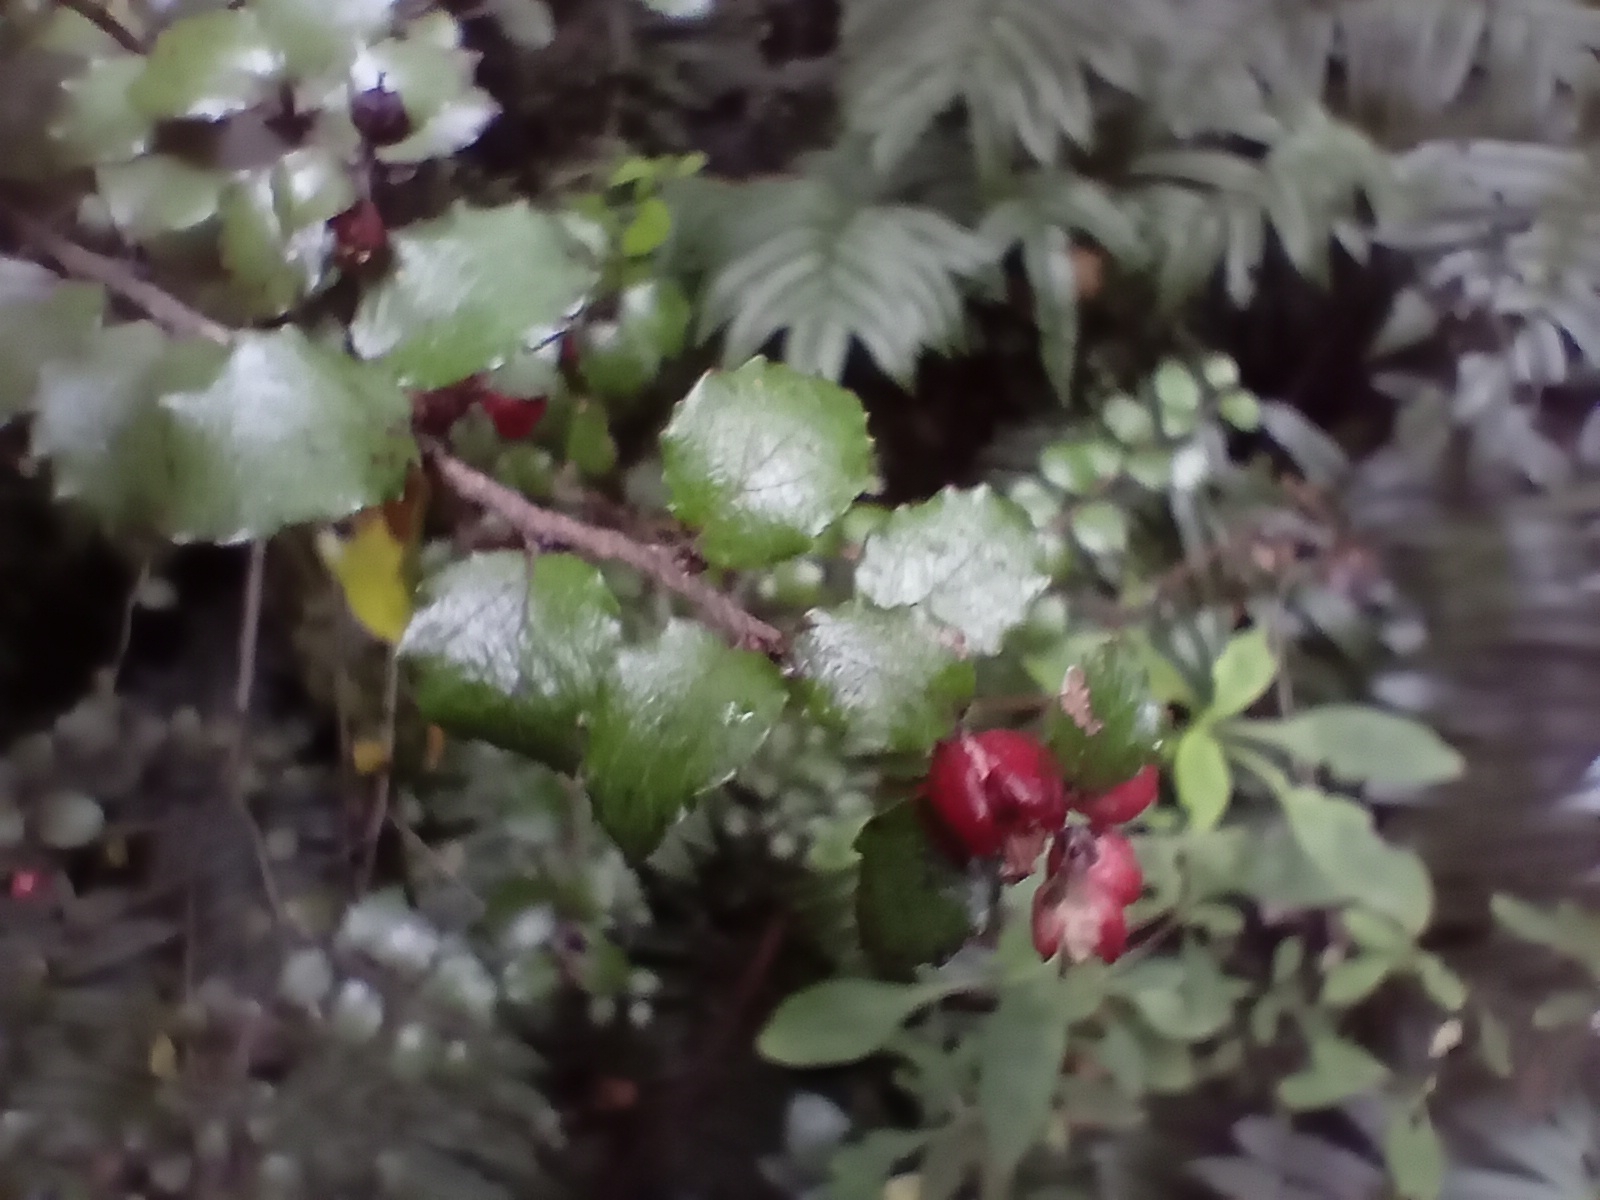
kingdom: Plantae
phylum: Tracheophyta
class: Magnoliopsida
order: Ericales
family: Ericaceae
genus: Gaultheria
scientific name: Gaultheria antipoda
